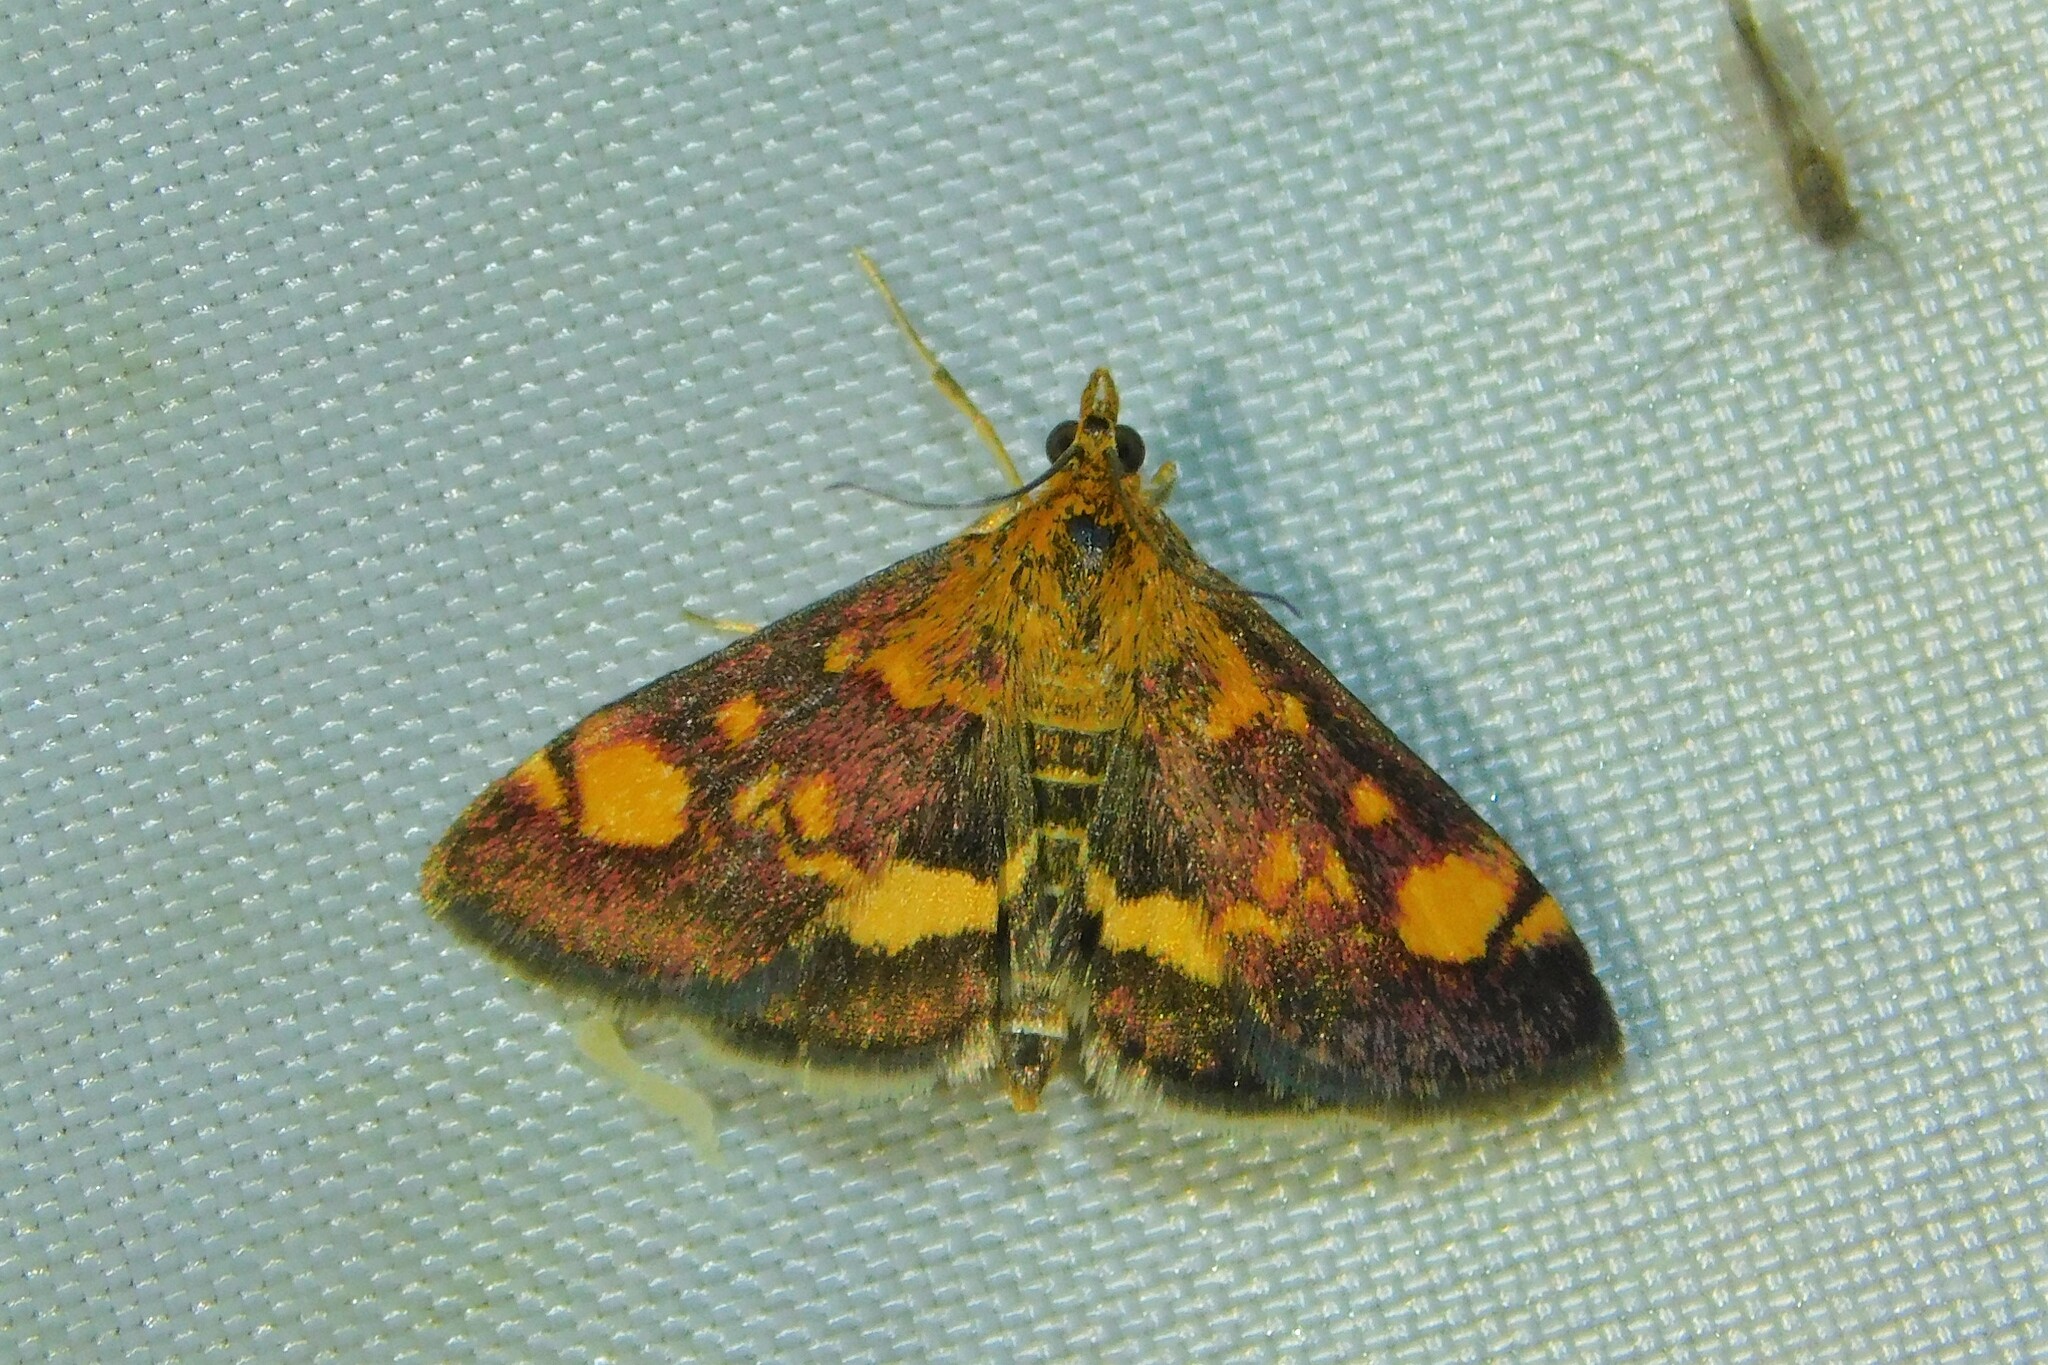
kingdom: Animalia
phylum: Arthropoda
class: Insecta
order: Lepidoptera
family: Crambidae
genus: Pyrausta
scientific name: Pyrausta aurata
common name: Small purple & gold
